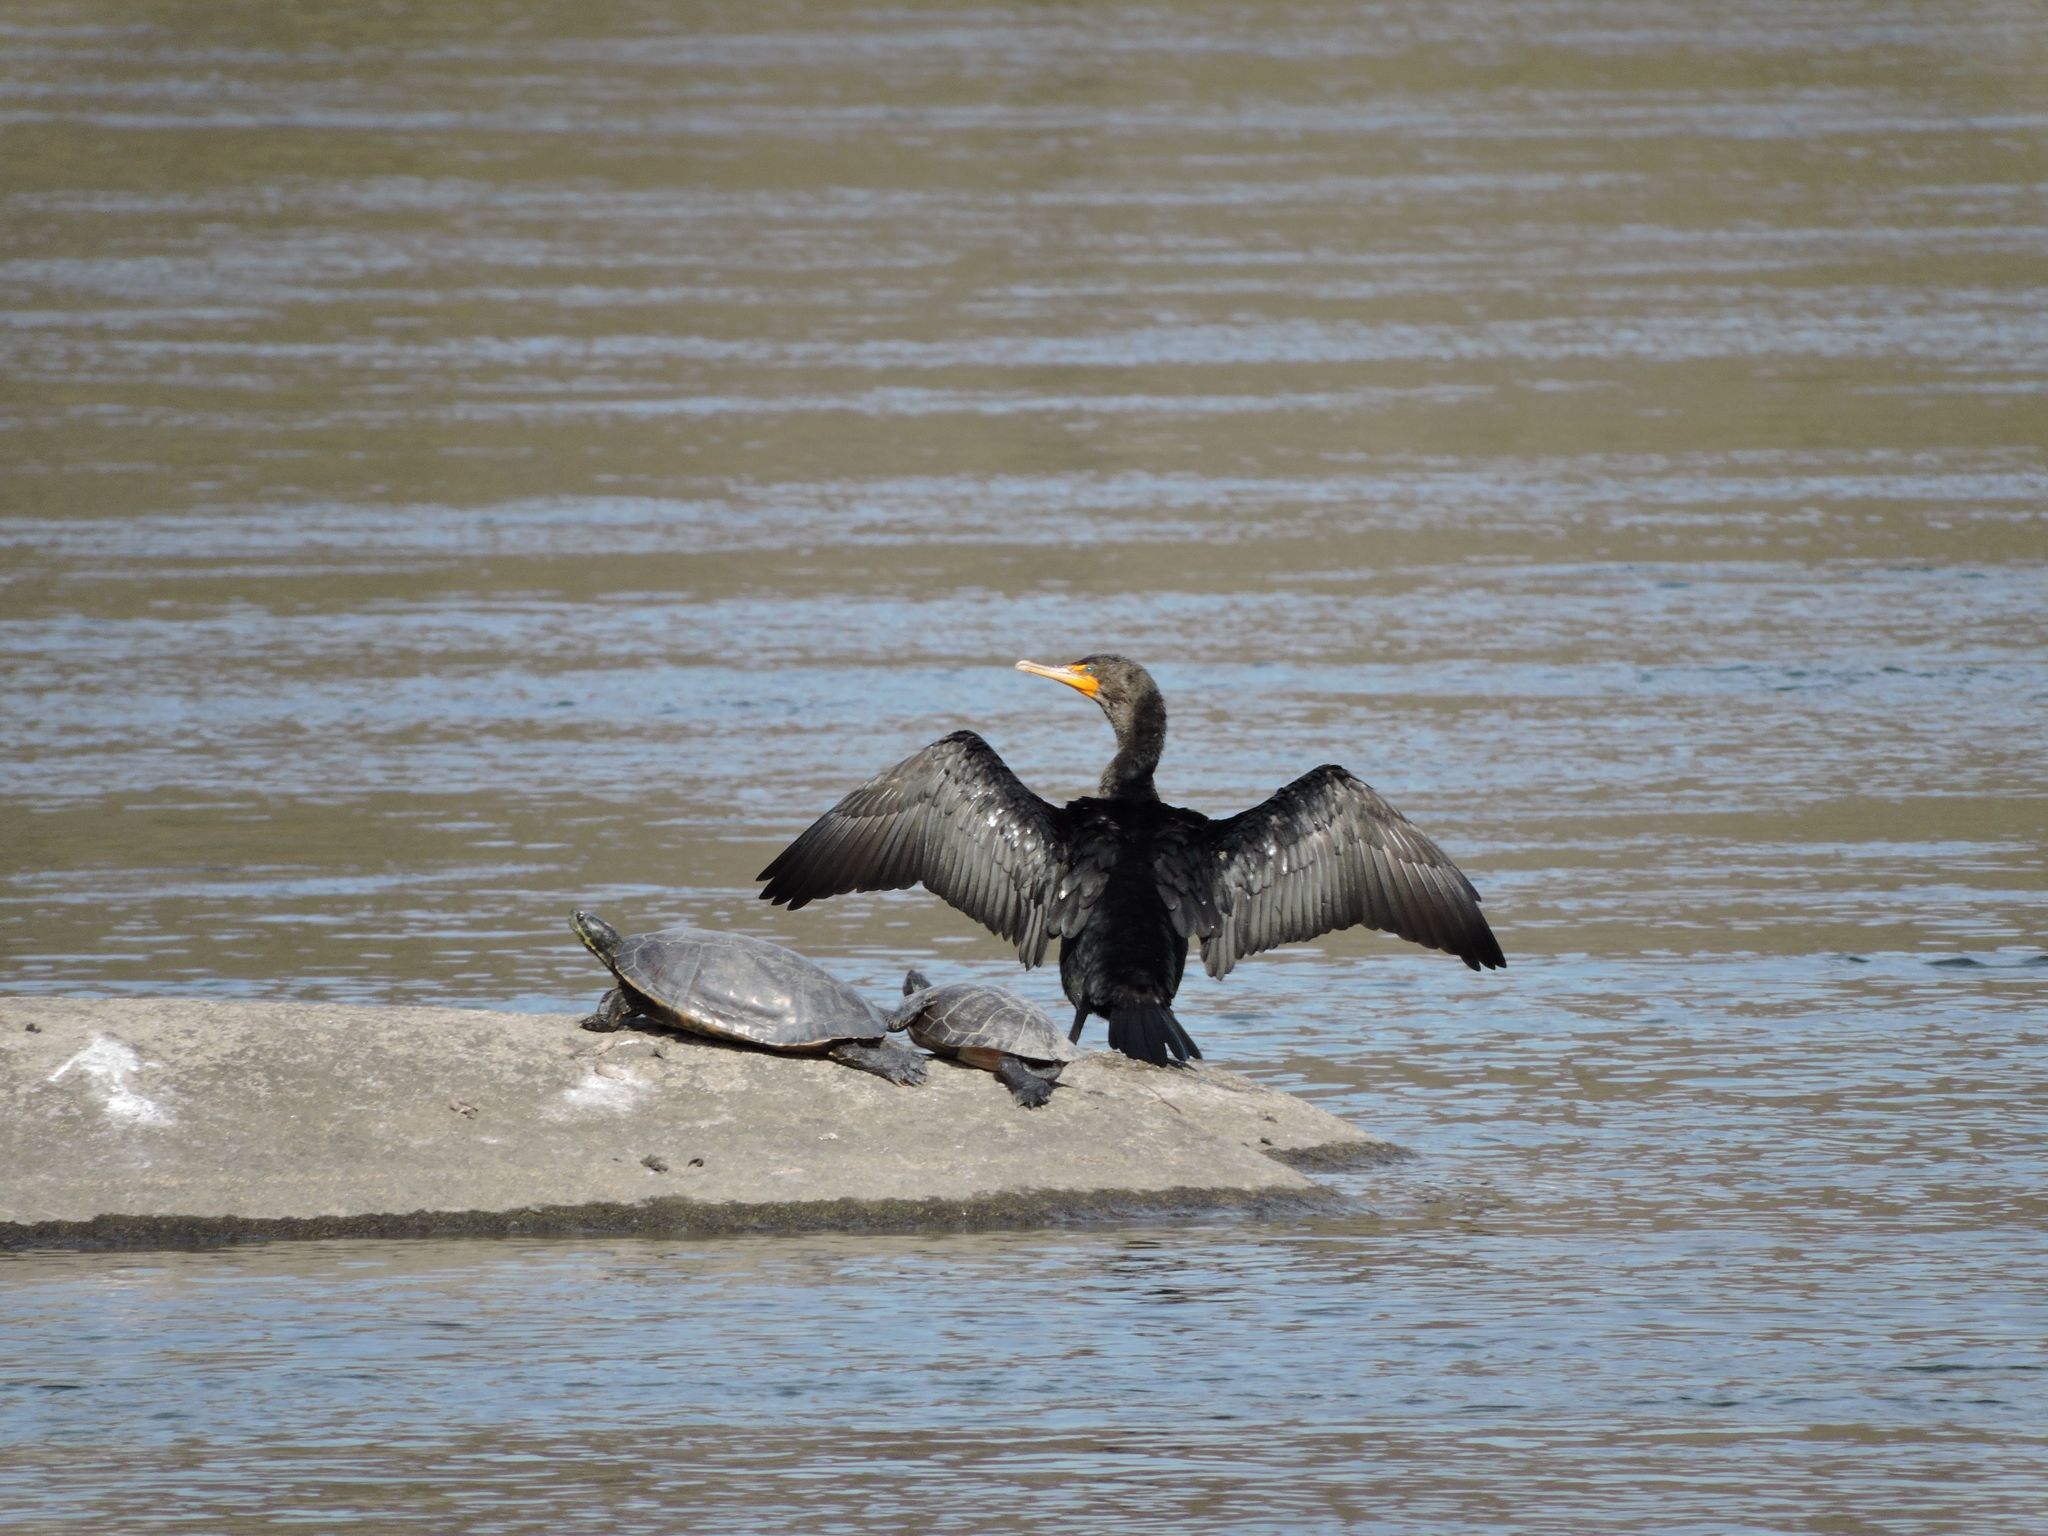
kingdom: Animalia
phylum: Chordata
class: Aves
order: Suliformes
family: Phalacrocoracidae
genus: Phalacrocorax
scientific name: Phalacrocorax auritus
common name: Double-crested cormorant
